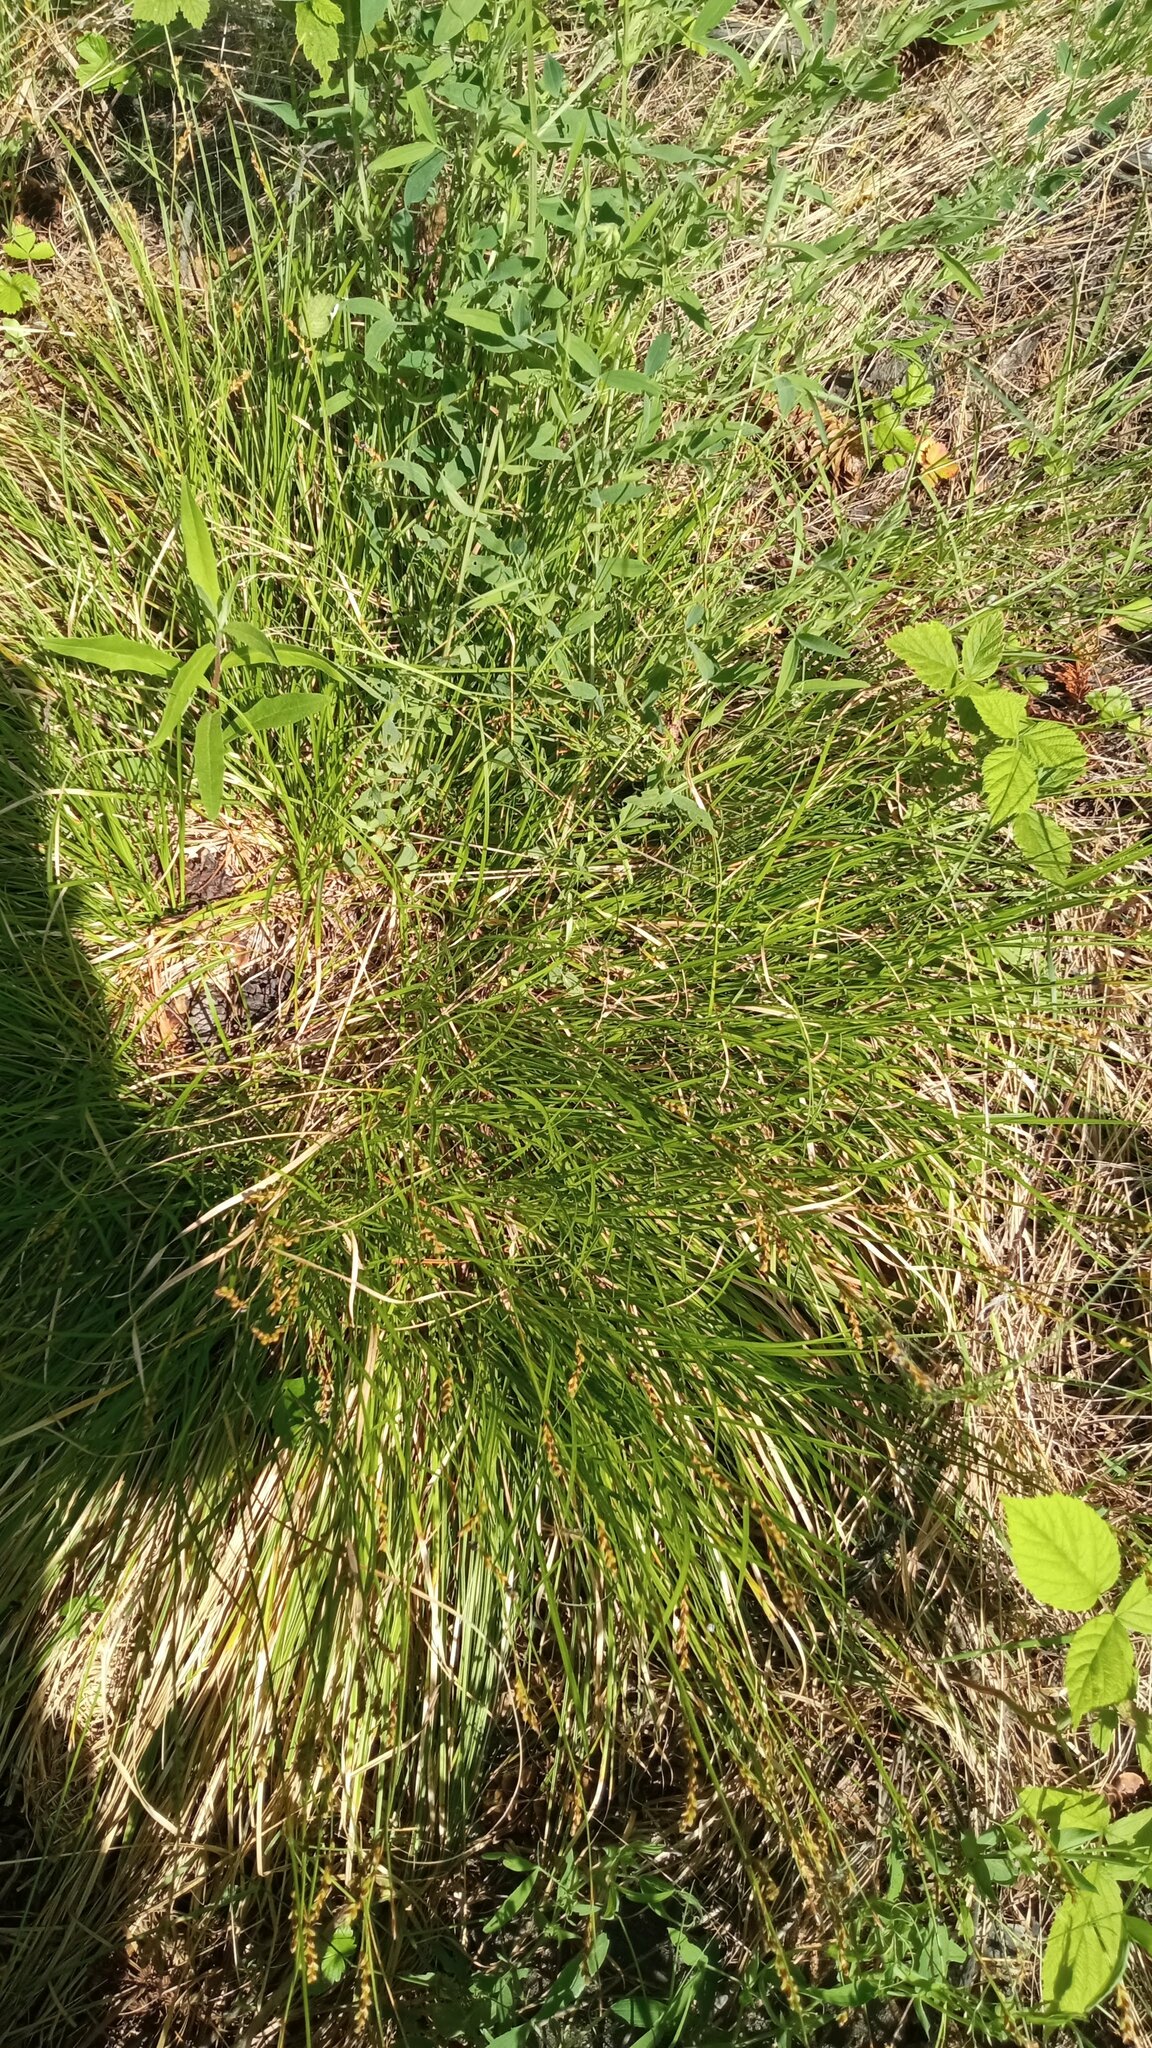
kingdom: Plantae
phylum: Tracheophyta
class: Liliopsida
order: Poales
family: Cyperaceae
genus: Carex
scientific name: Carex pediformis
